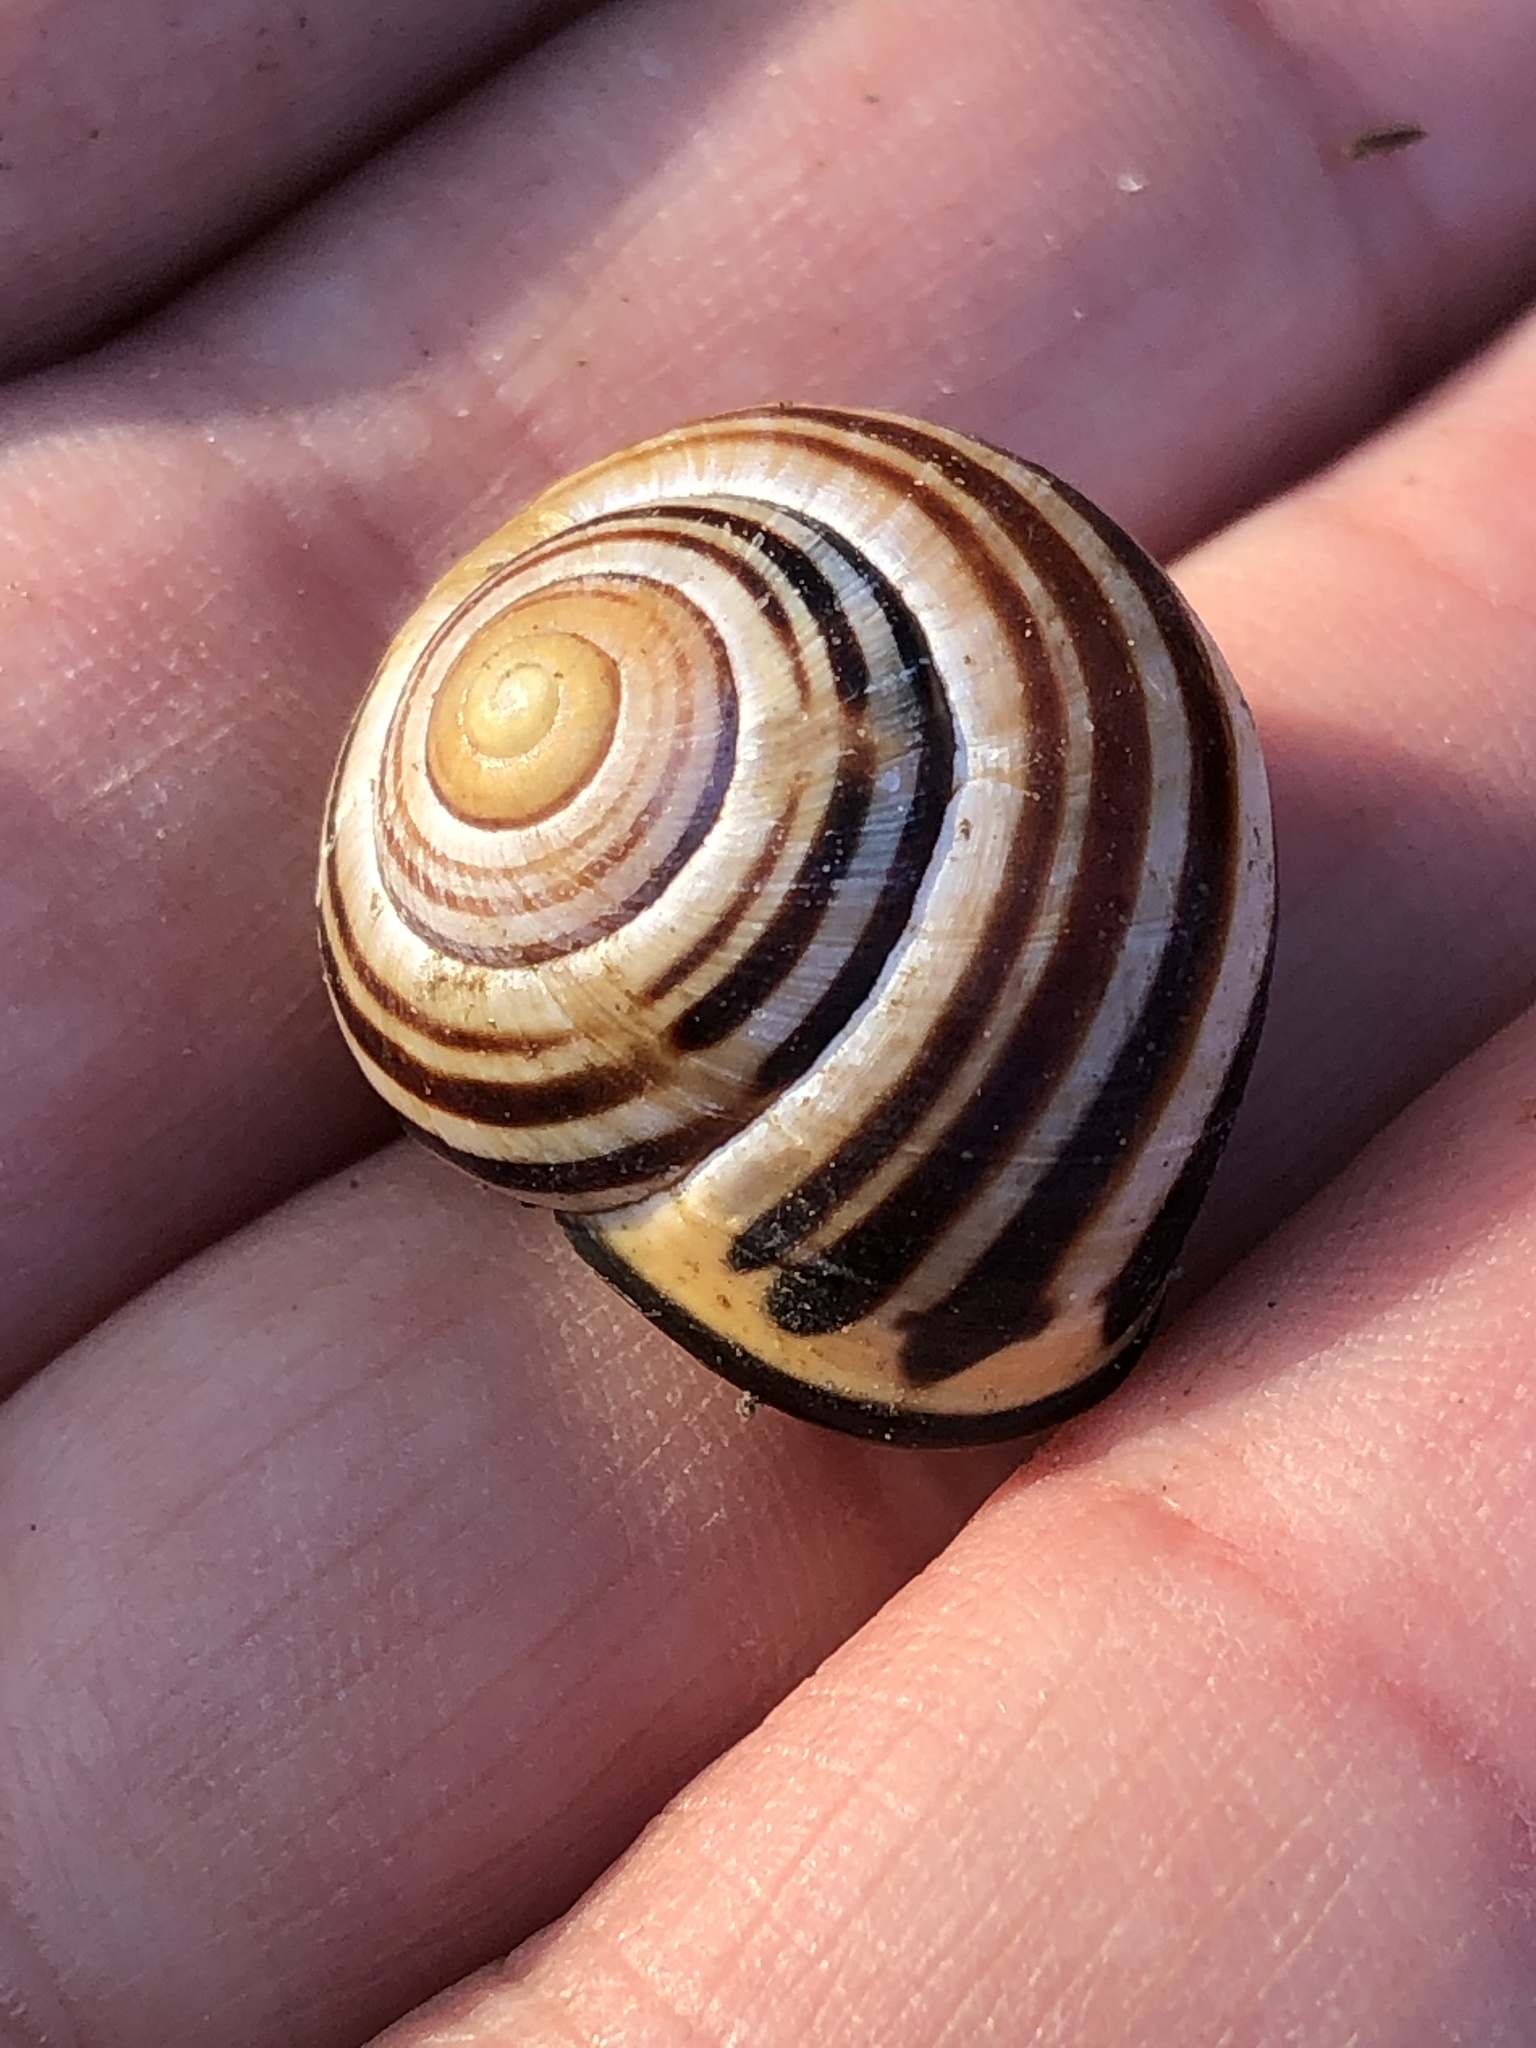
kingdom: Animalia
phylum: Mollusca
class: Gastropoda
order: Stylommatophora
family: Helicidae
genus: Cepaea
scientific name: Cepaea nemoralis
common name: Grovesnail
